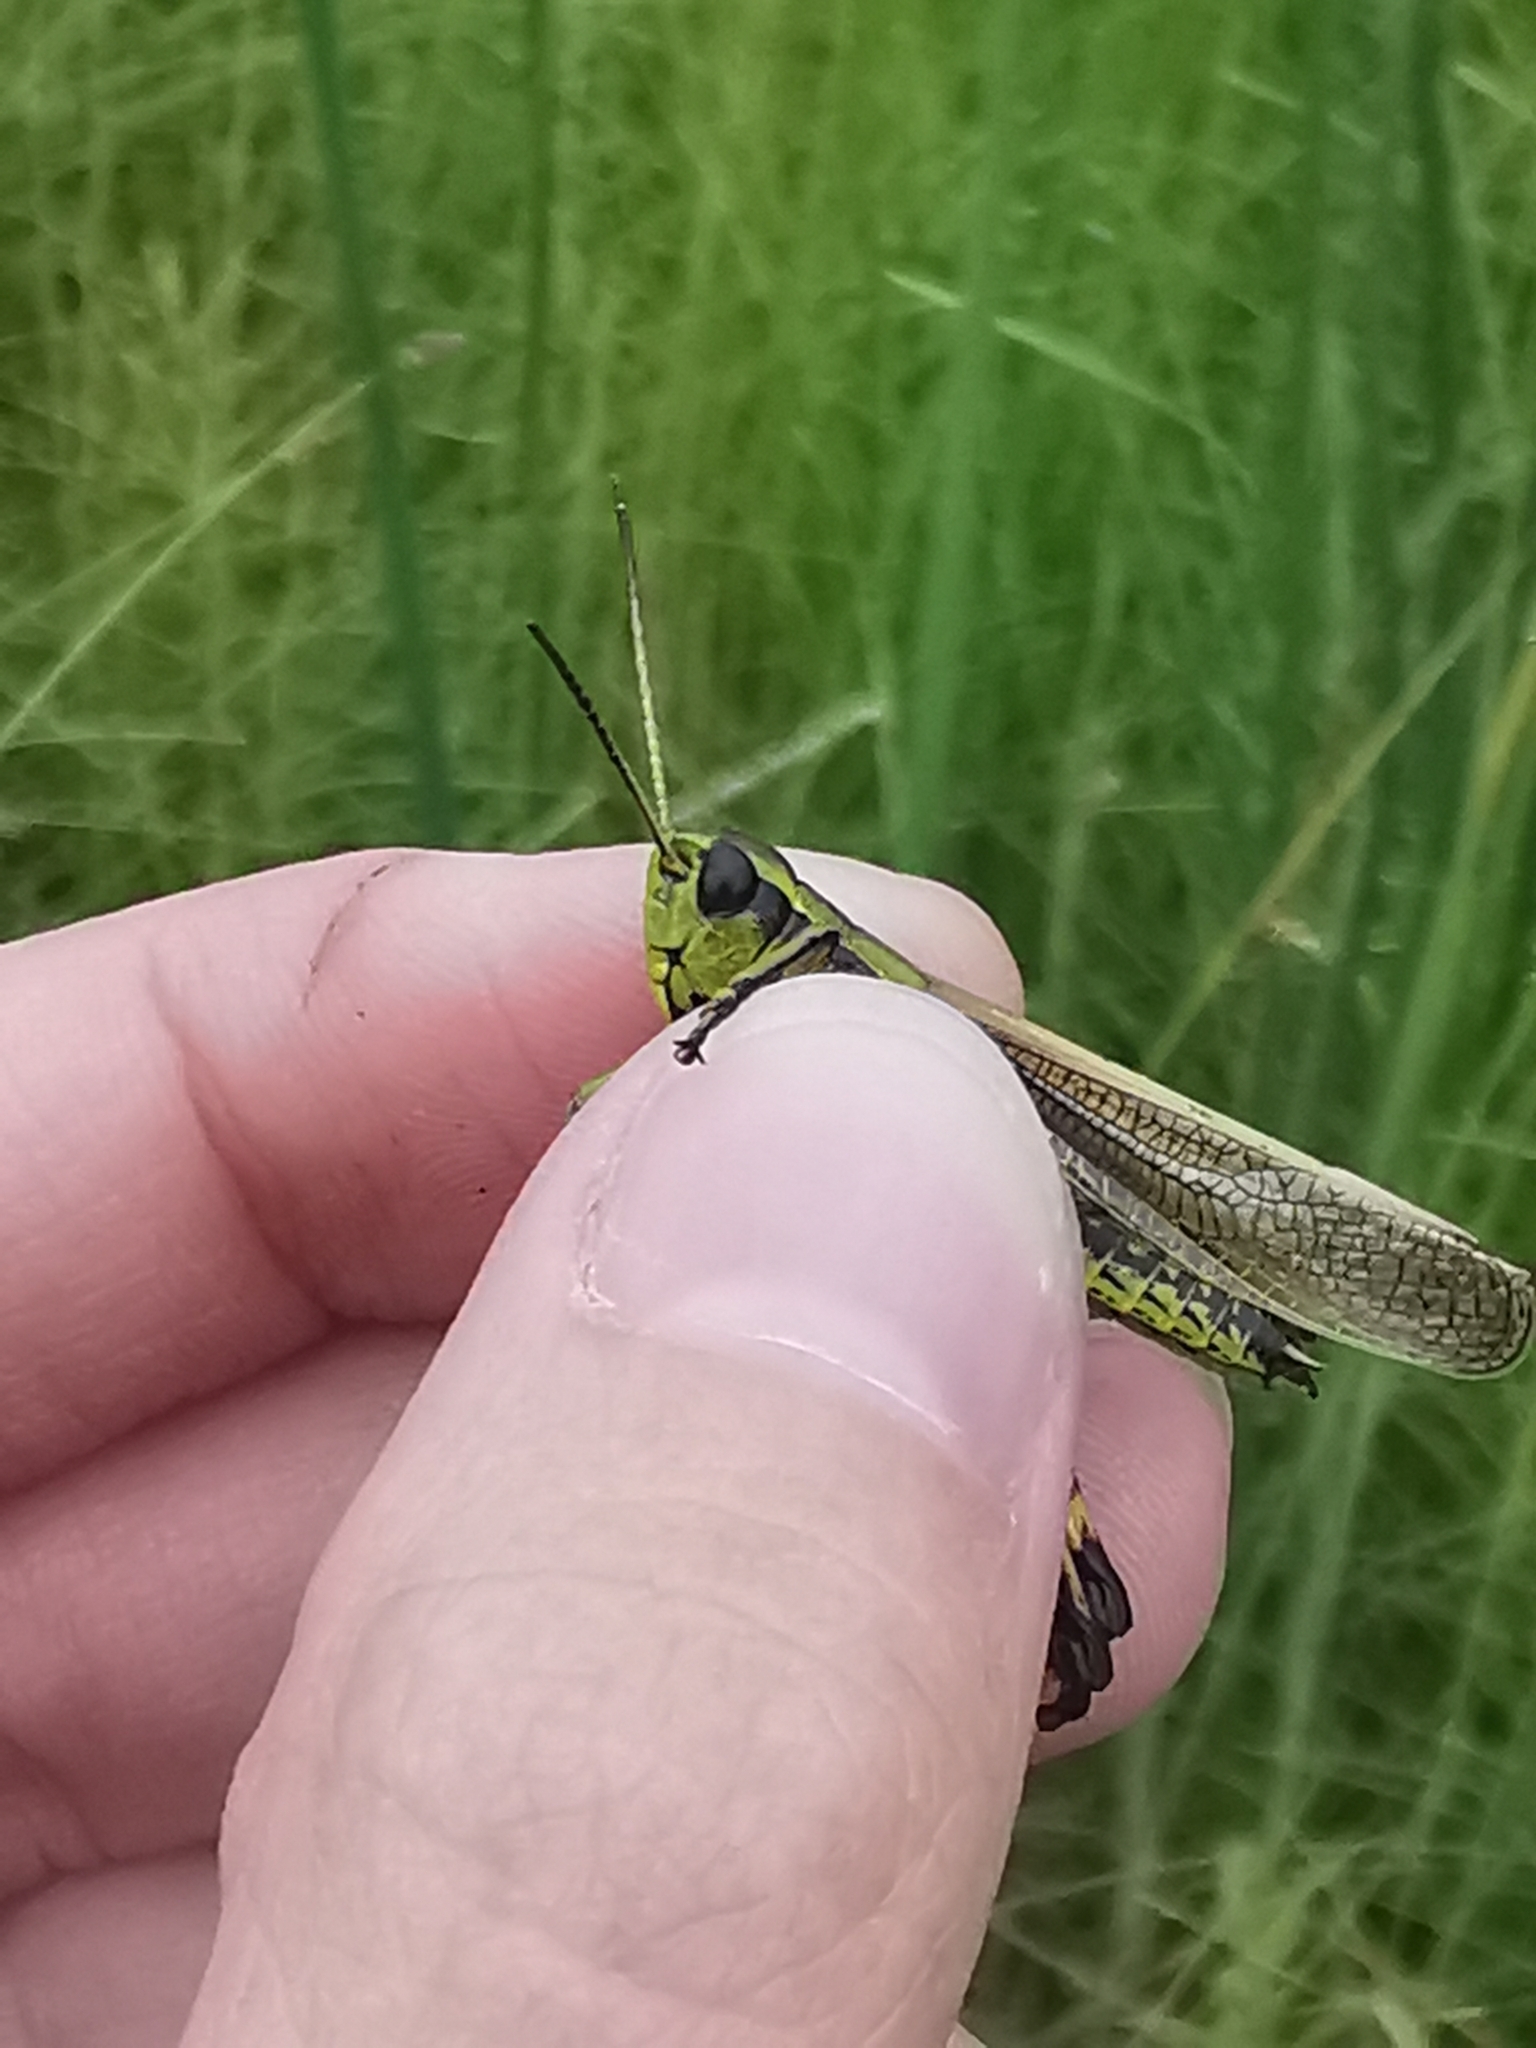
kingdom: Animalia
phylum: Arthropoda
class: Insecta
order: Orthoptera
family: Acrididae
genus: Stethophyma
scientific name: Stethophyma grossum
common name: Large marsh grasshopper
